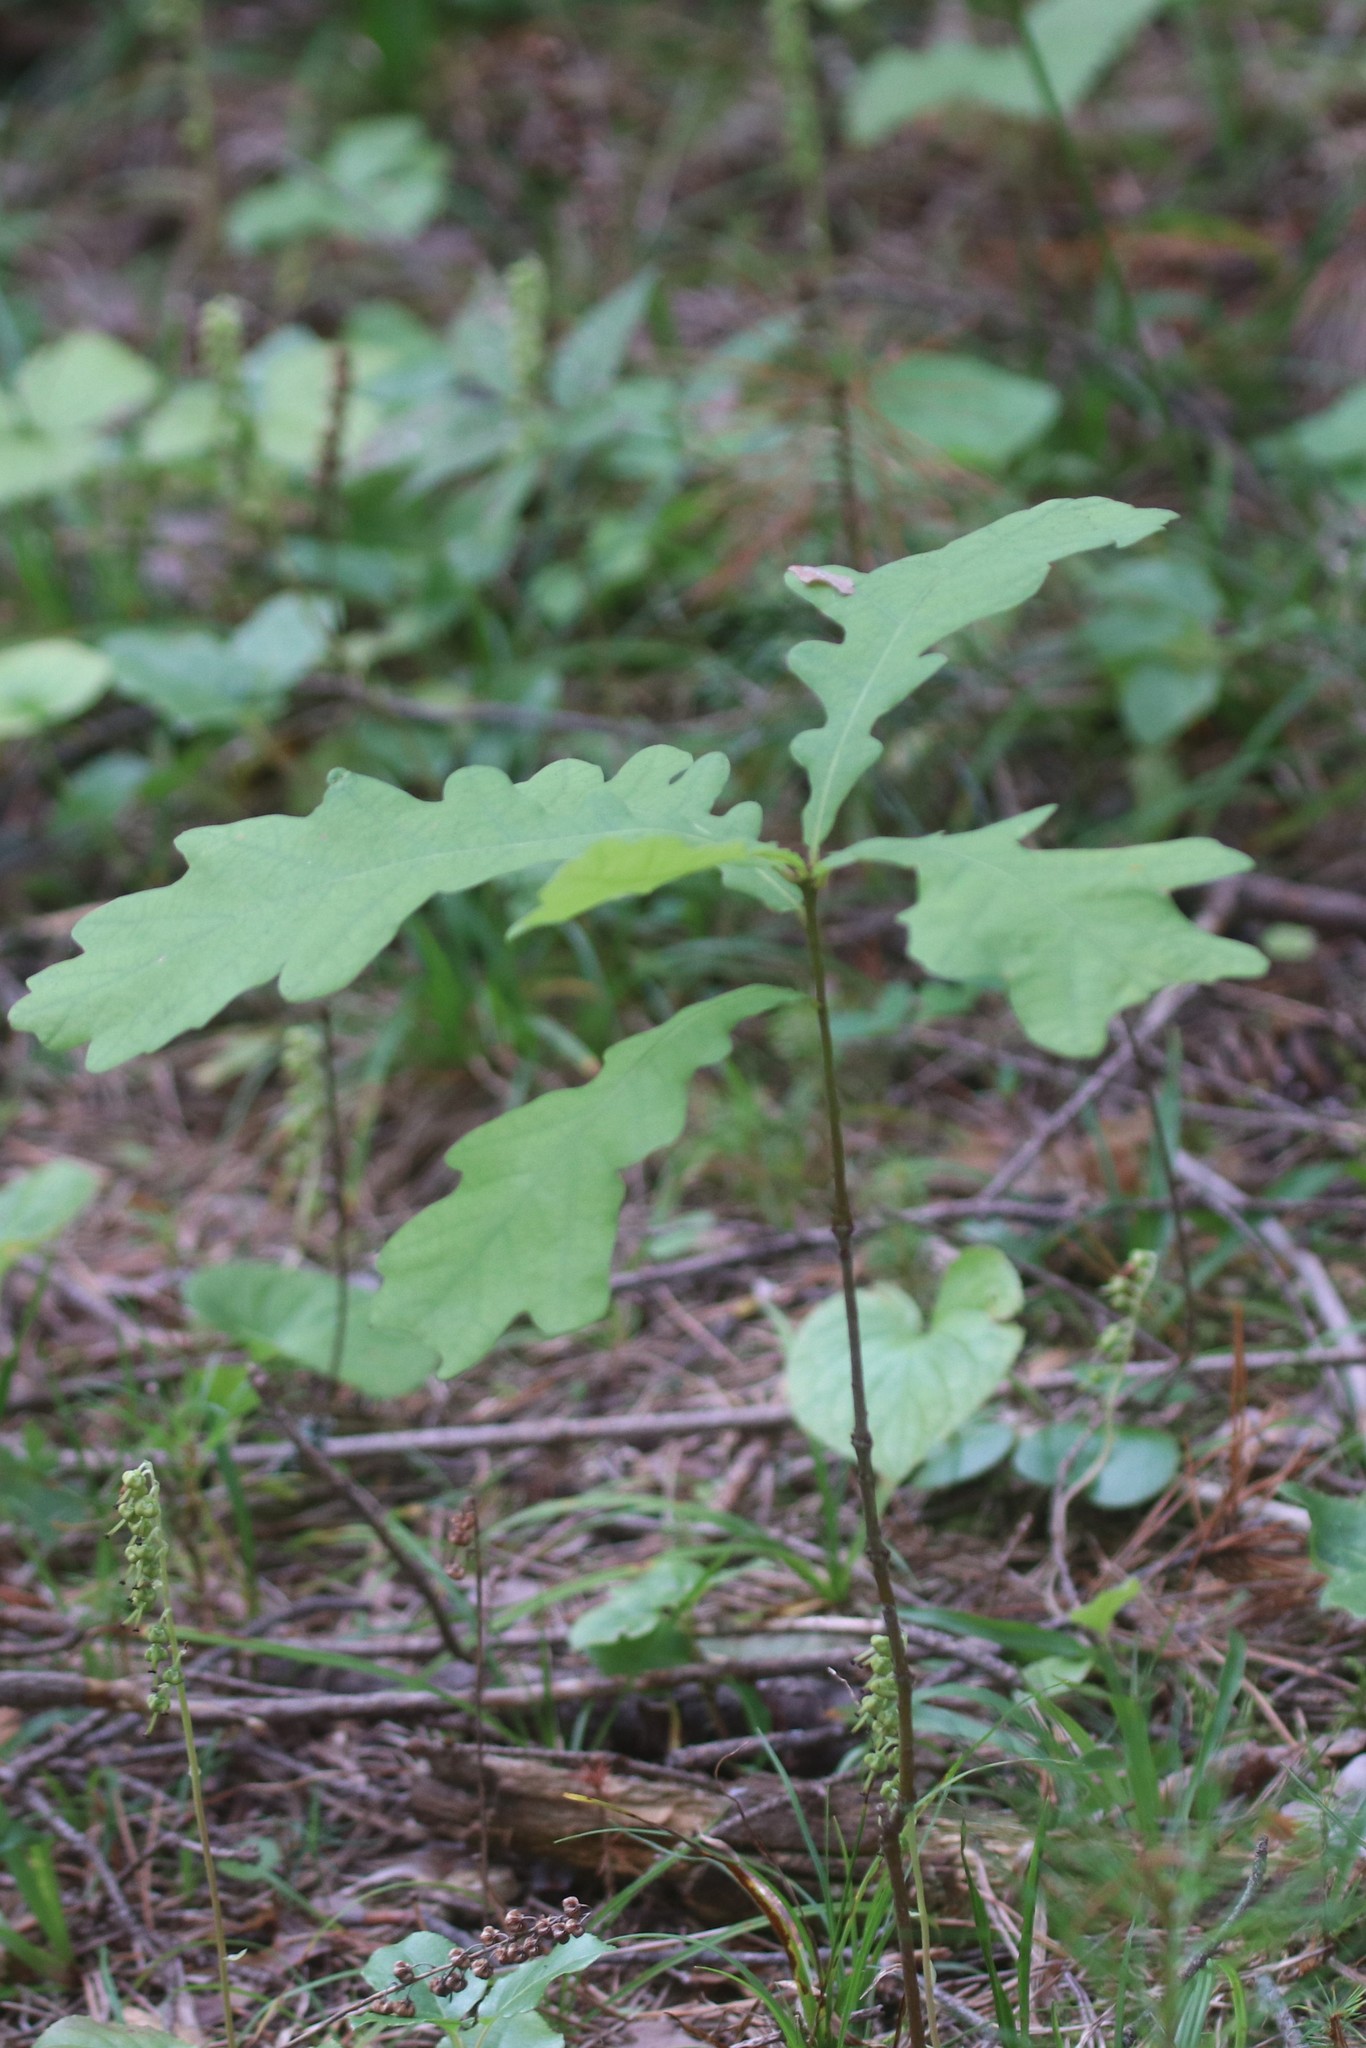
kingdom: Plantae
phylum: Tracheophyta
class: Magnoliopsida
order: Fagales
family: Fagaceae
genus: Quercus
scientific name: Quercus robur
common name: Pedunculate oak
